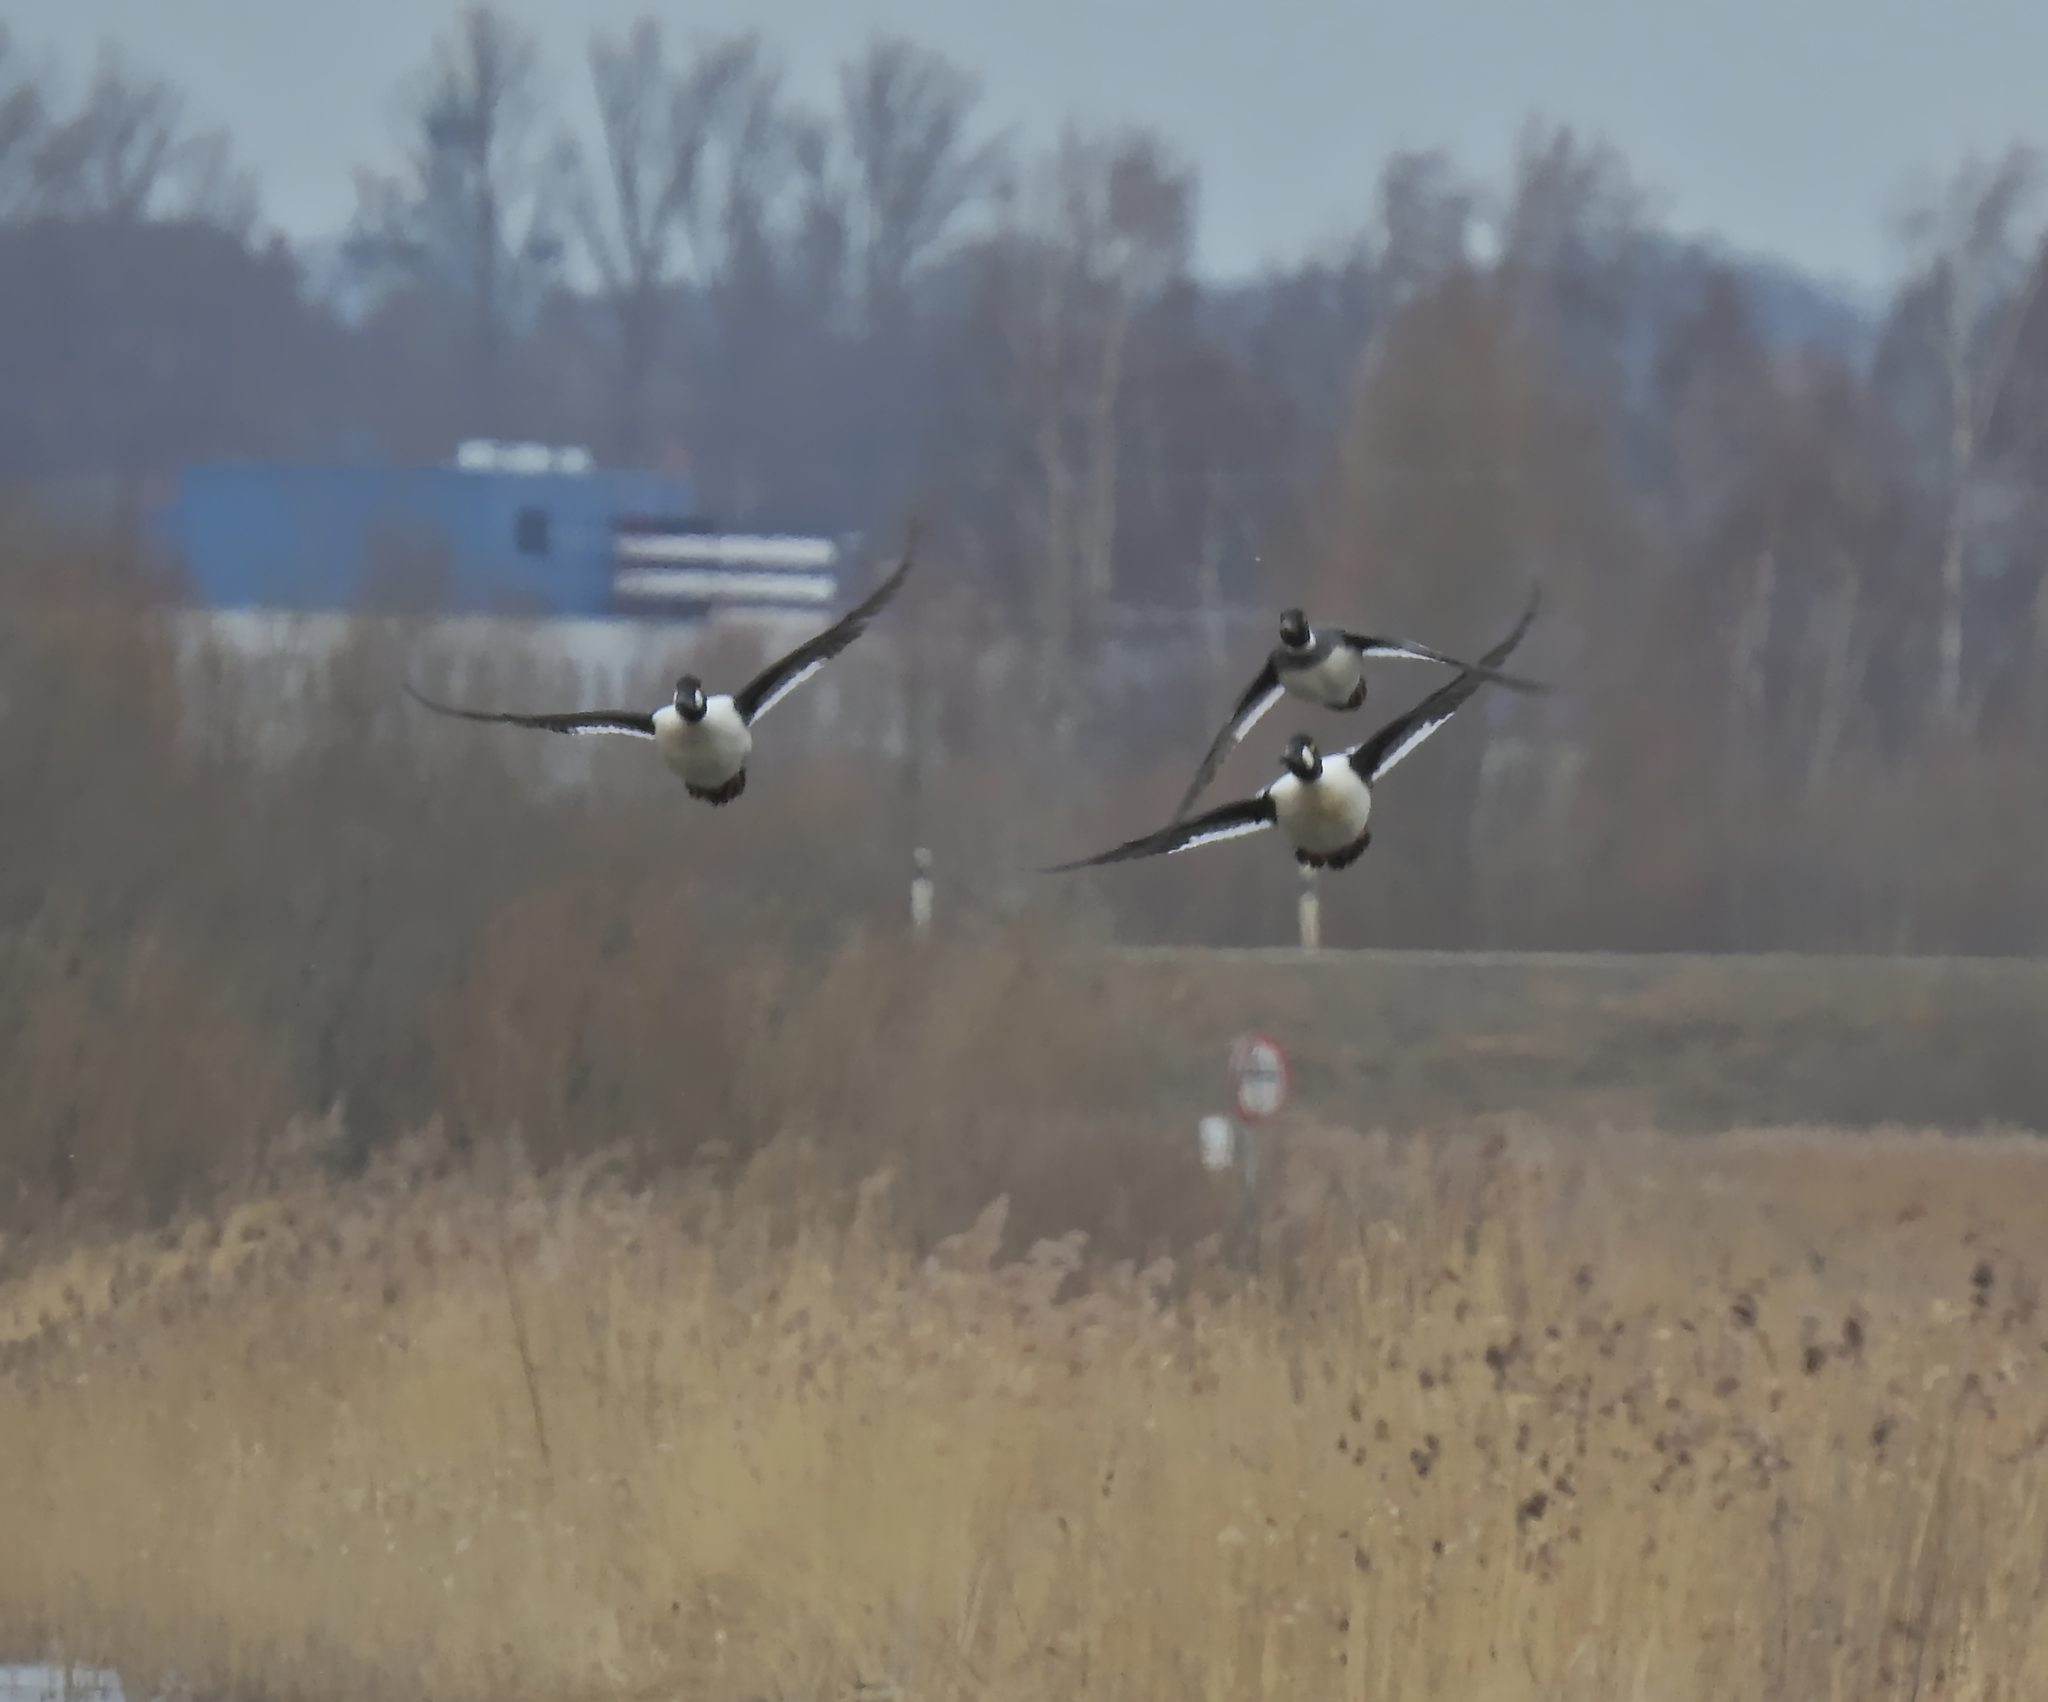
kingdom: Animalia
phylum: Chordata
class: Aves
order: Anseriformes
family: Anatidae
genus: Bucephala
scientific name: Bucephala clangula
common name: Common goldeneye
